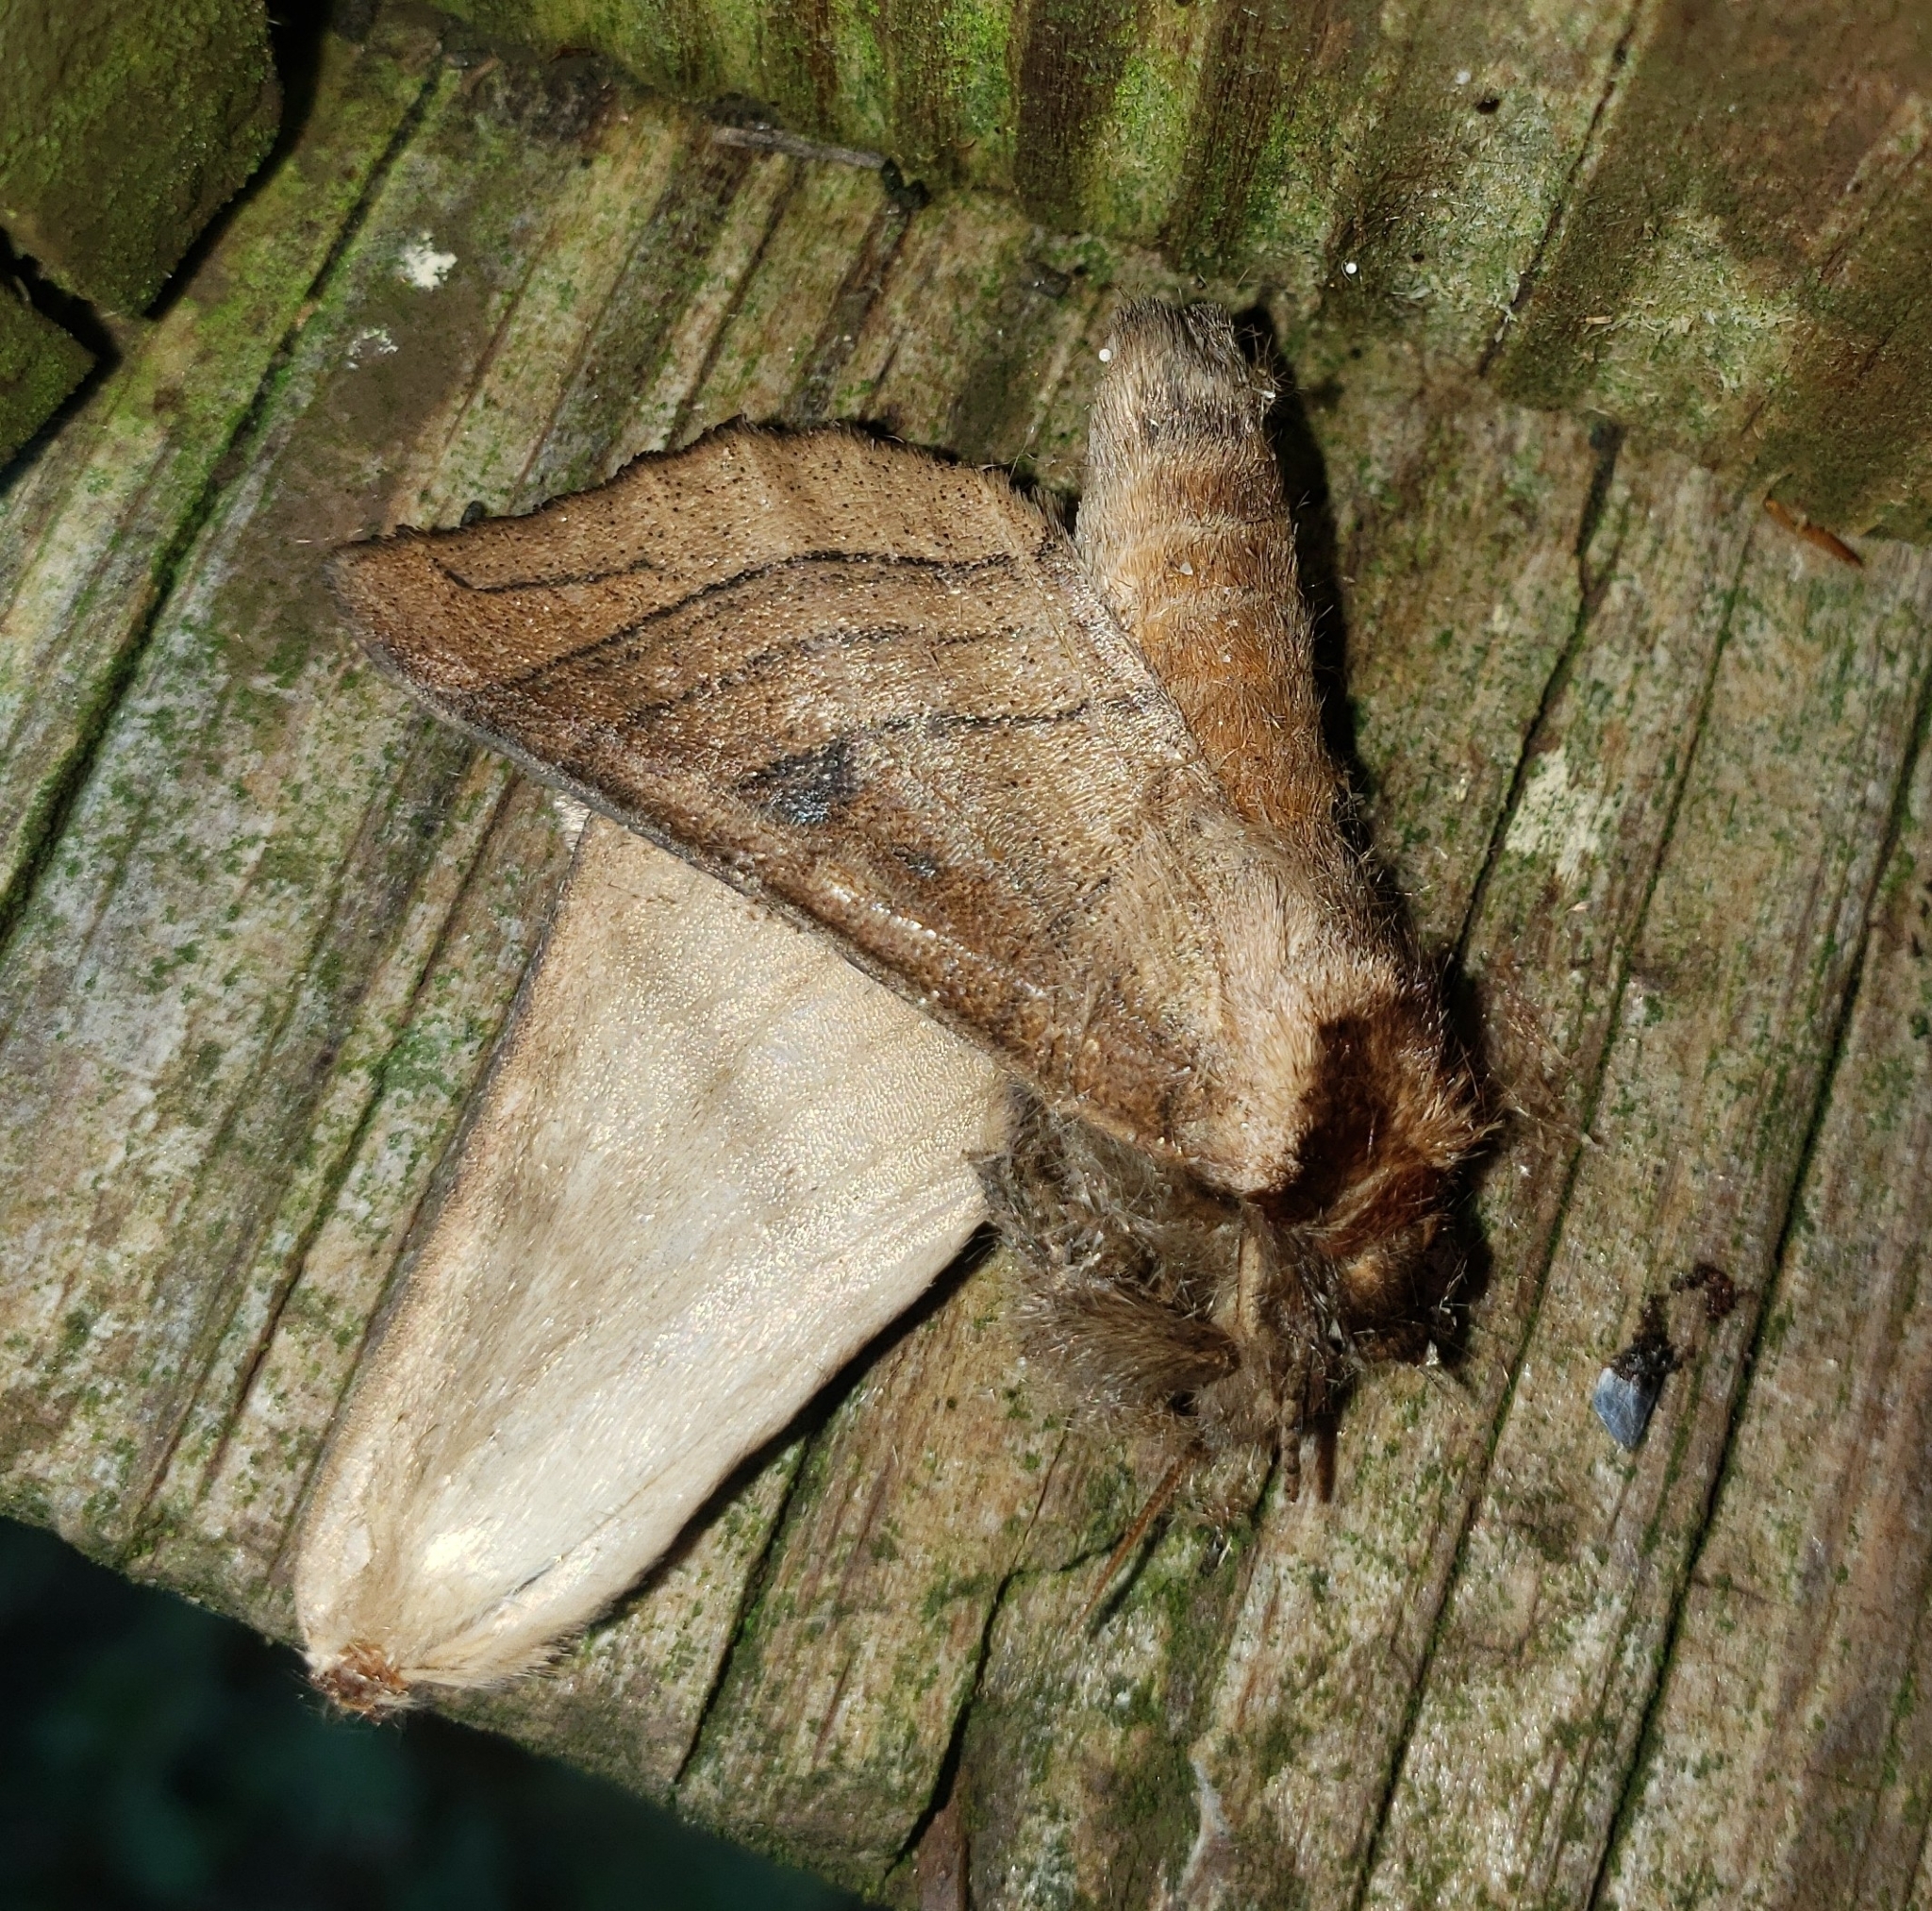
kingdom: Animalia
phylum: Arthropoda
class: Insecta
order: Lepidoptera
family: Notodontidae
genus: Datana
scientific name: Datana angusii
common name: Angus's datana
